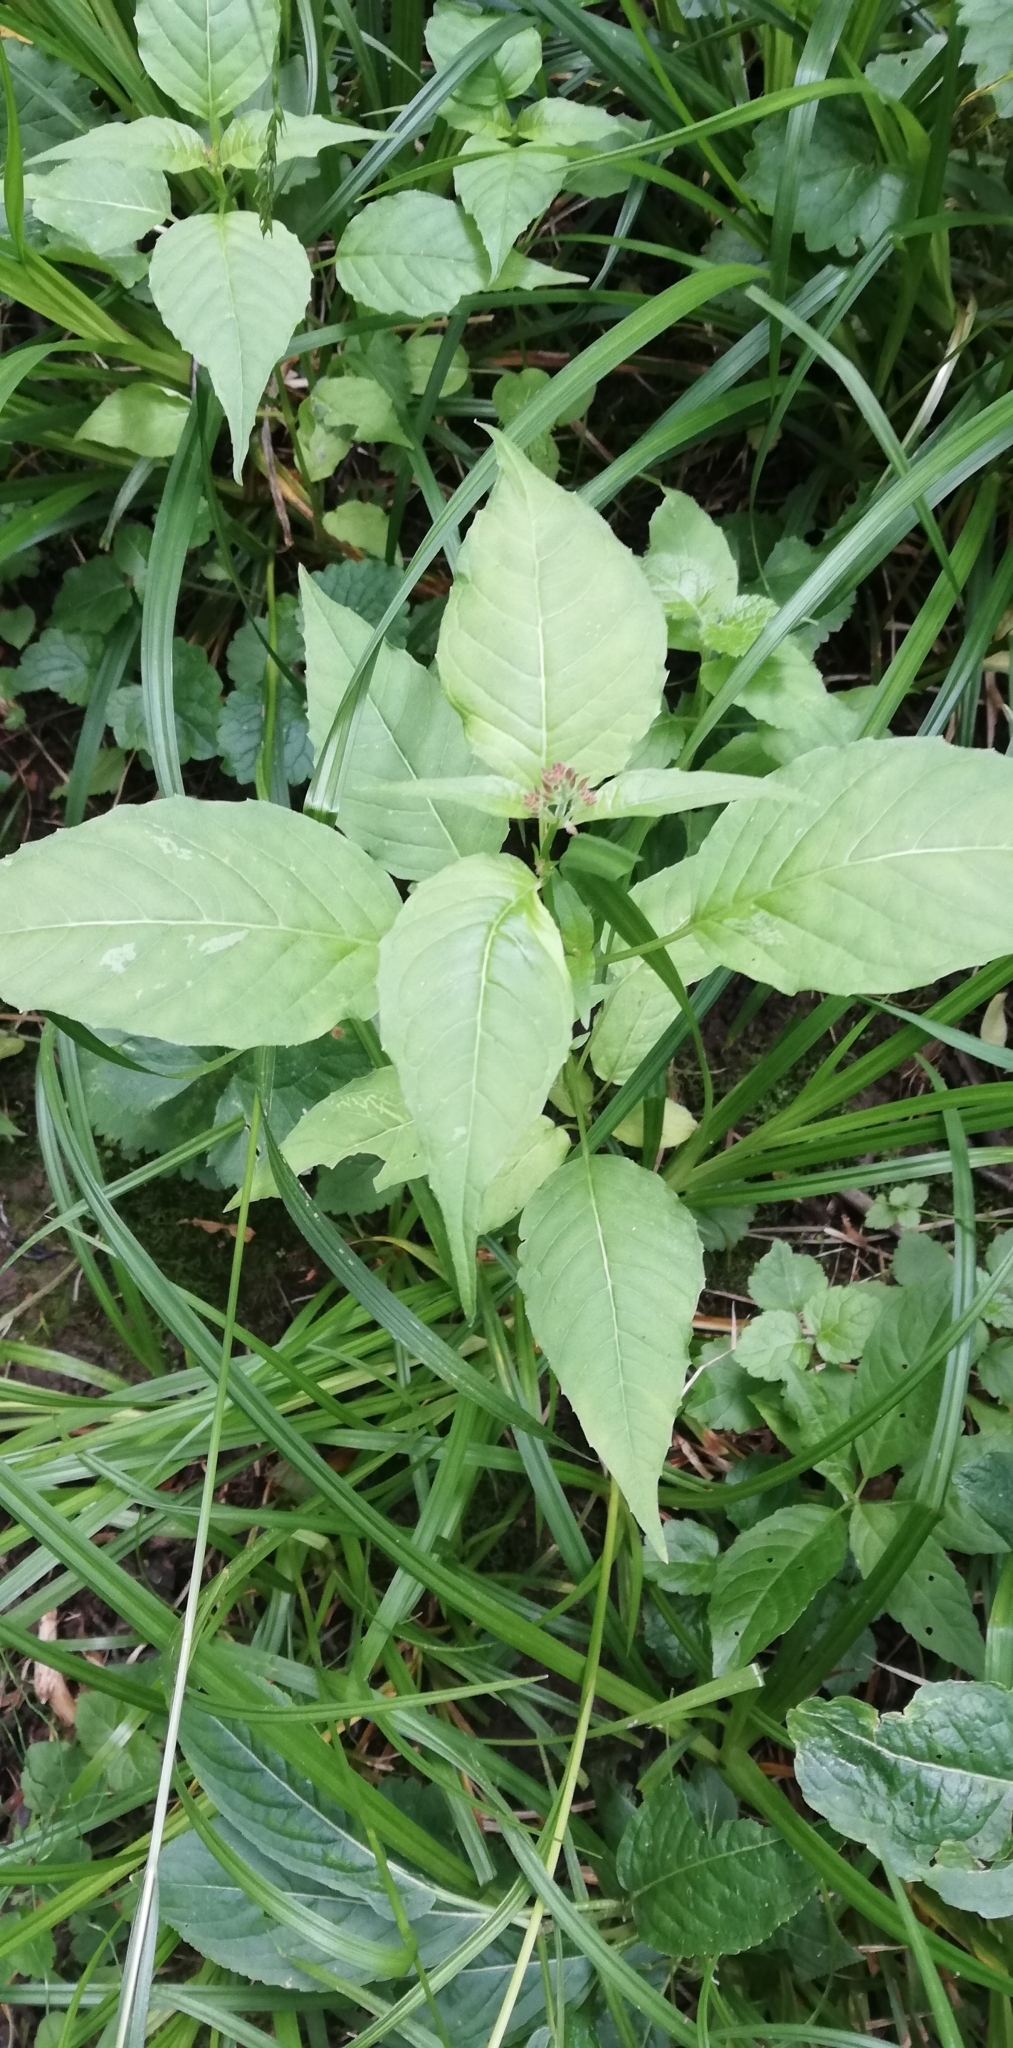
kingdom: Plantae
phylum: Tracheophyta
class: Magnoliopsida
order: Myrtales
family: Onagraceae
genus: Circaea
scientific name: Circaea lutetiana
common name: Enchanter's-nightshade
